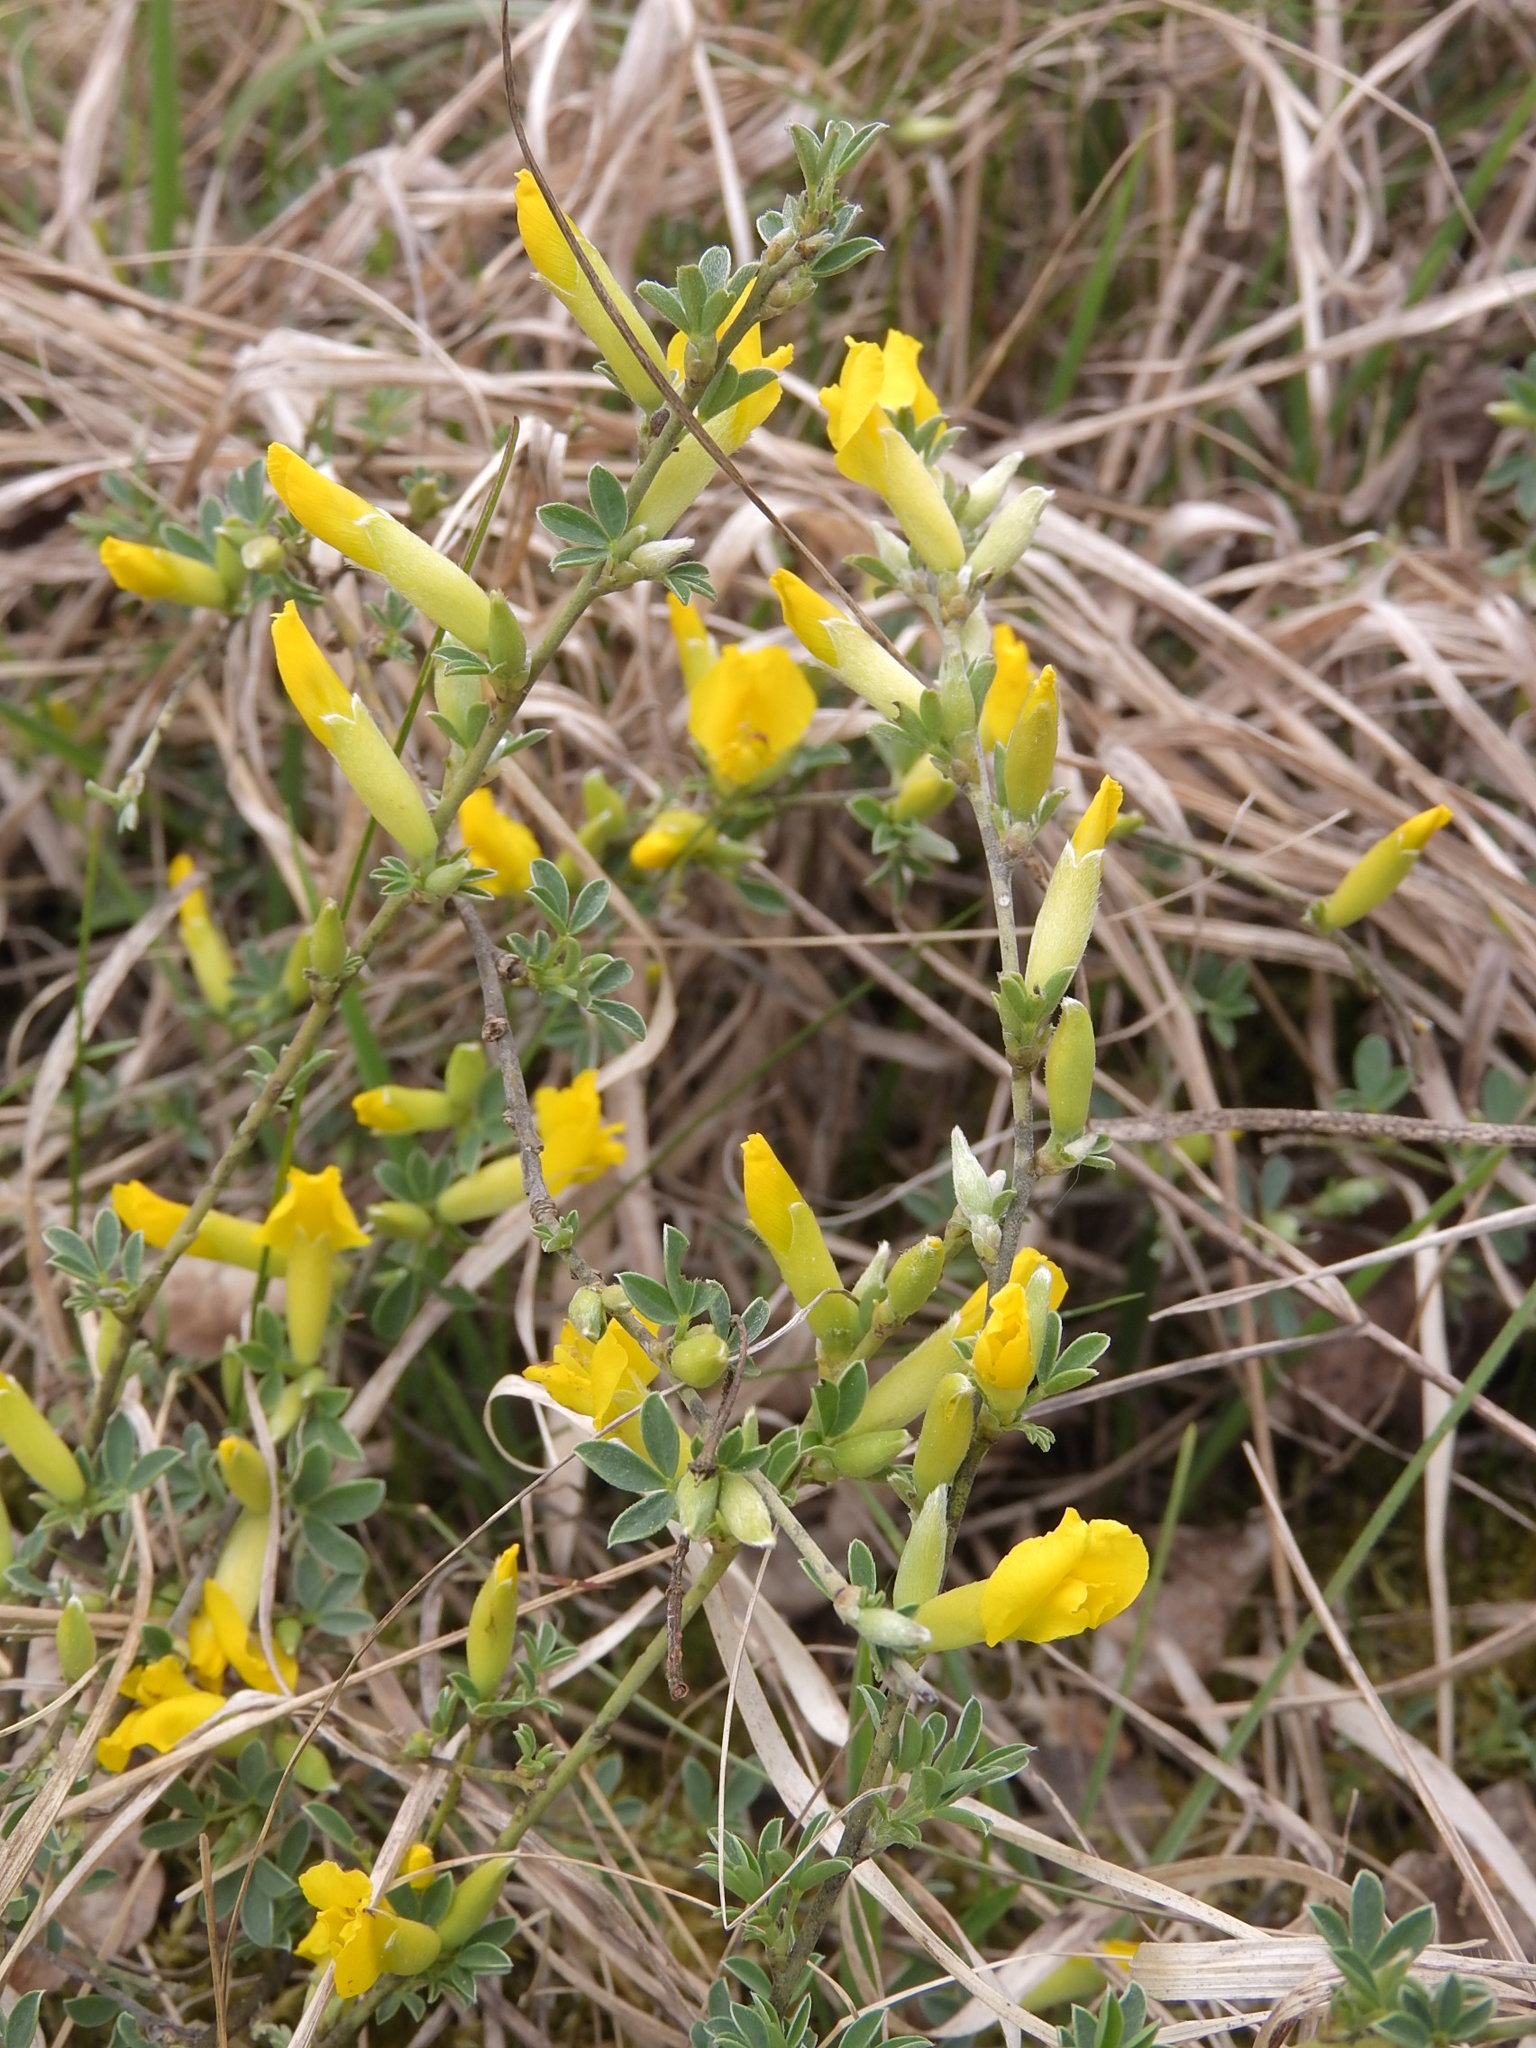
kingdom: Plantae
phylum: Tracheophyta
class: Magnoliopsida
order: Fabales
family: Fabaceae
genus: Chamaecytisus
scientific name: Chamaecytisus ratisbonensis
